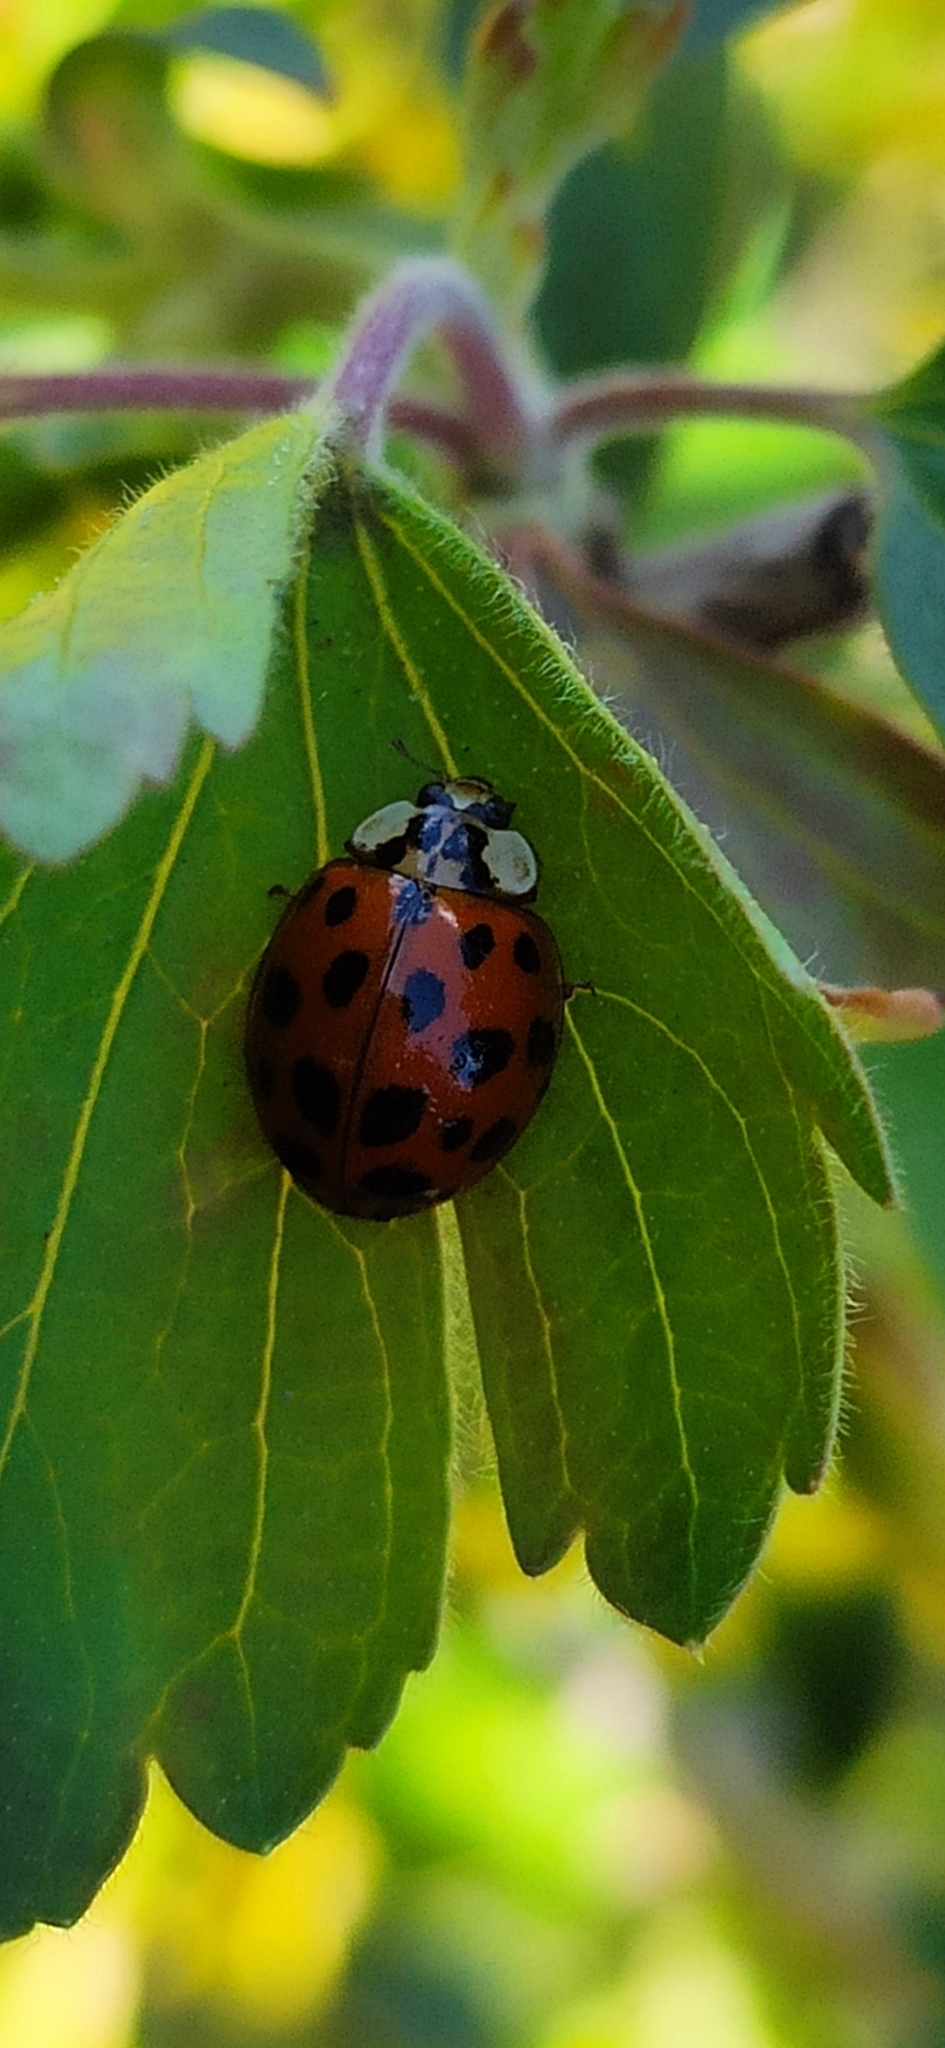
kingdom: Animalia
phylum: Arthropoda
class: Insecta
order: Coleoptera
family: Coccinellidae
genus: Harmonia
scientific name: Harmonia axyridis
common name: Harlequin ladybird
